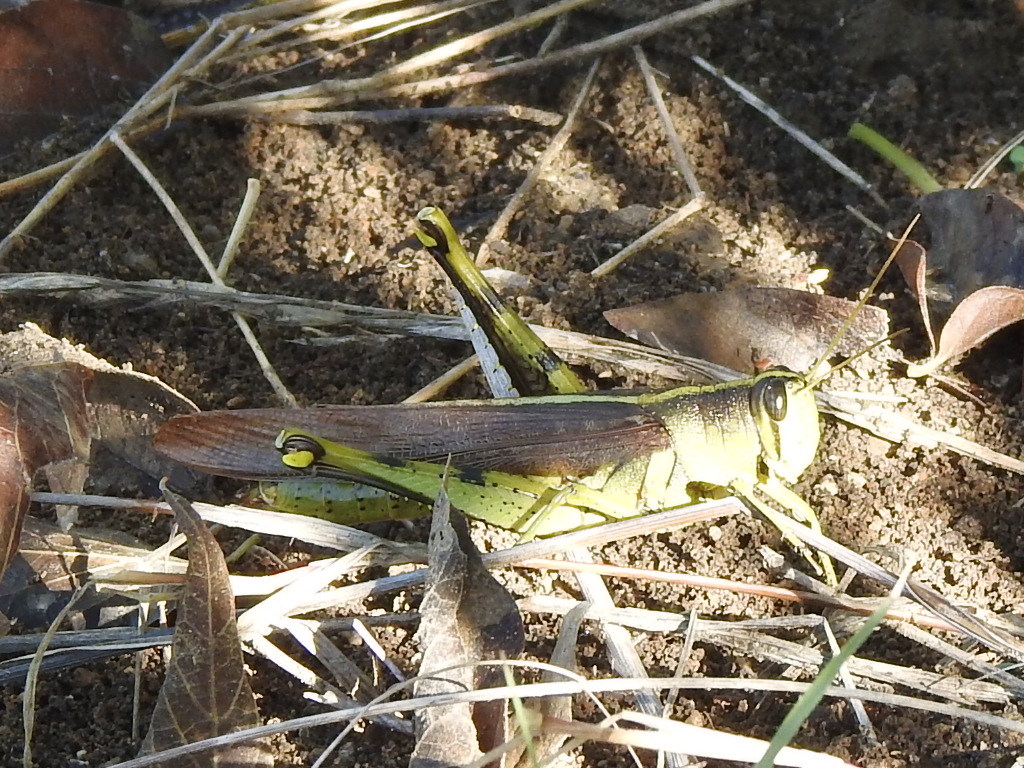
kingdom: Animalia
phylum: Arthropoda
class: Insecta
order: Orthoptera
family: Acrididae
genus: Schistocerca
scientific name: Schistocerca obscura
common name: Obscure bird grasshopper
